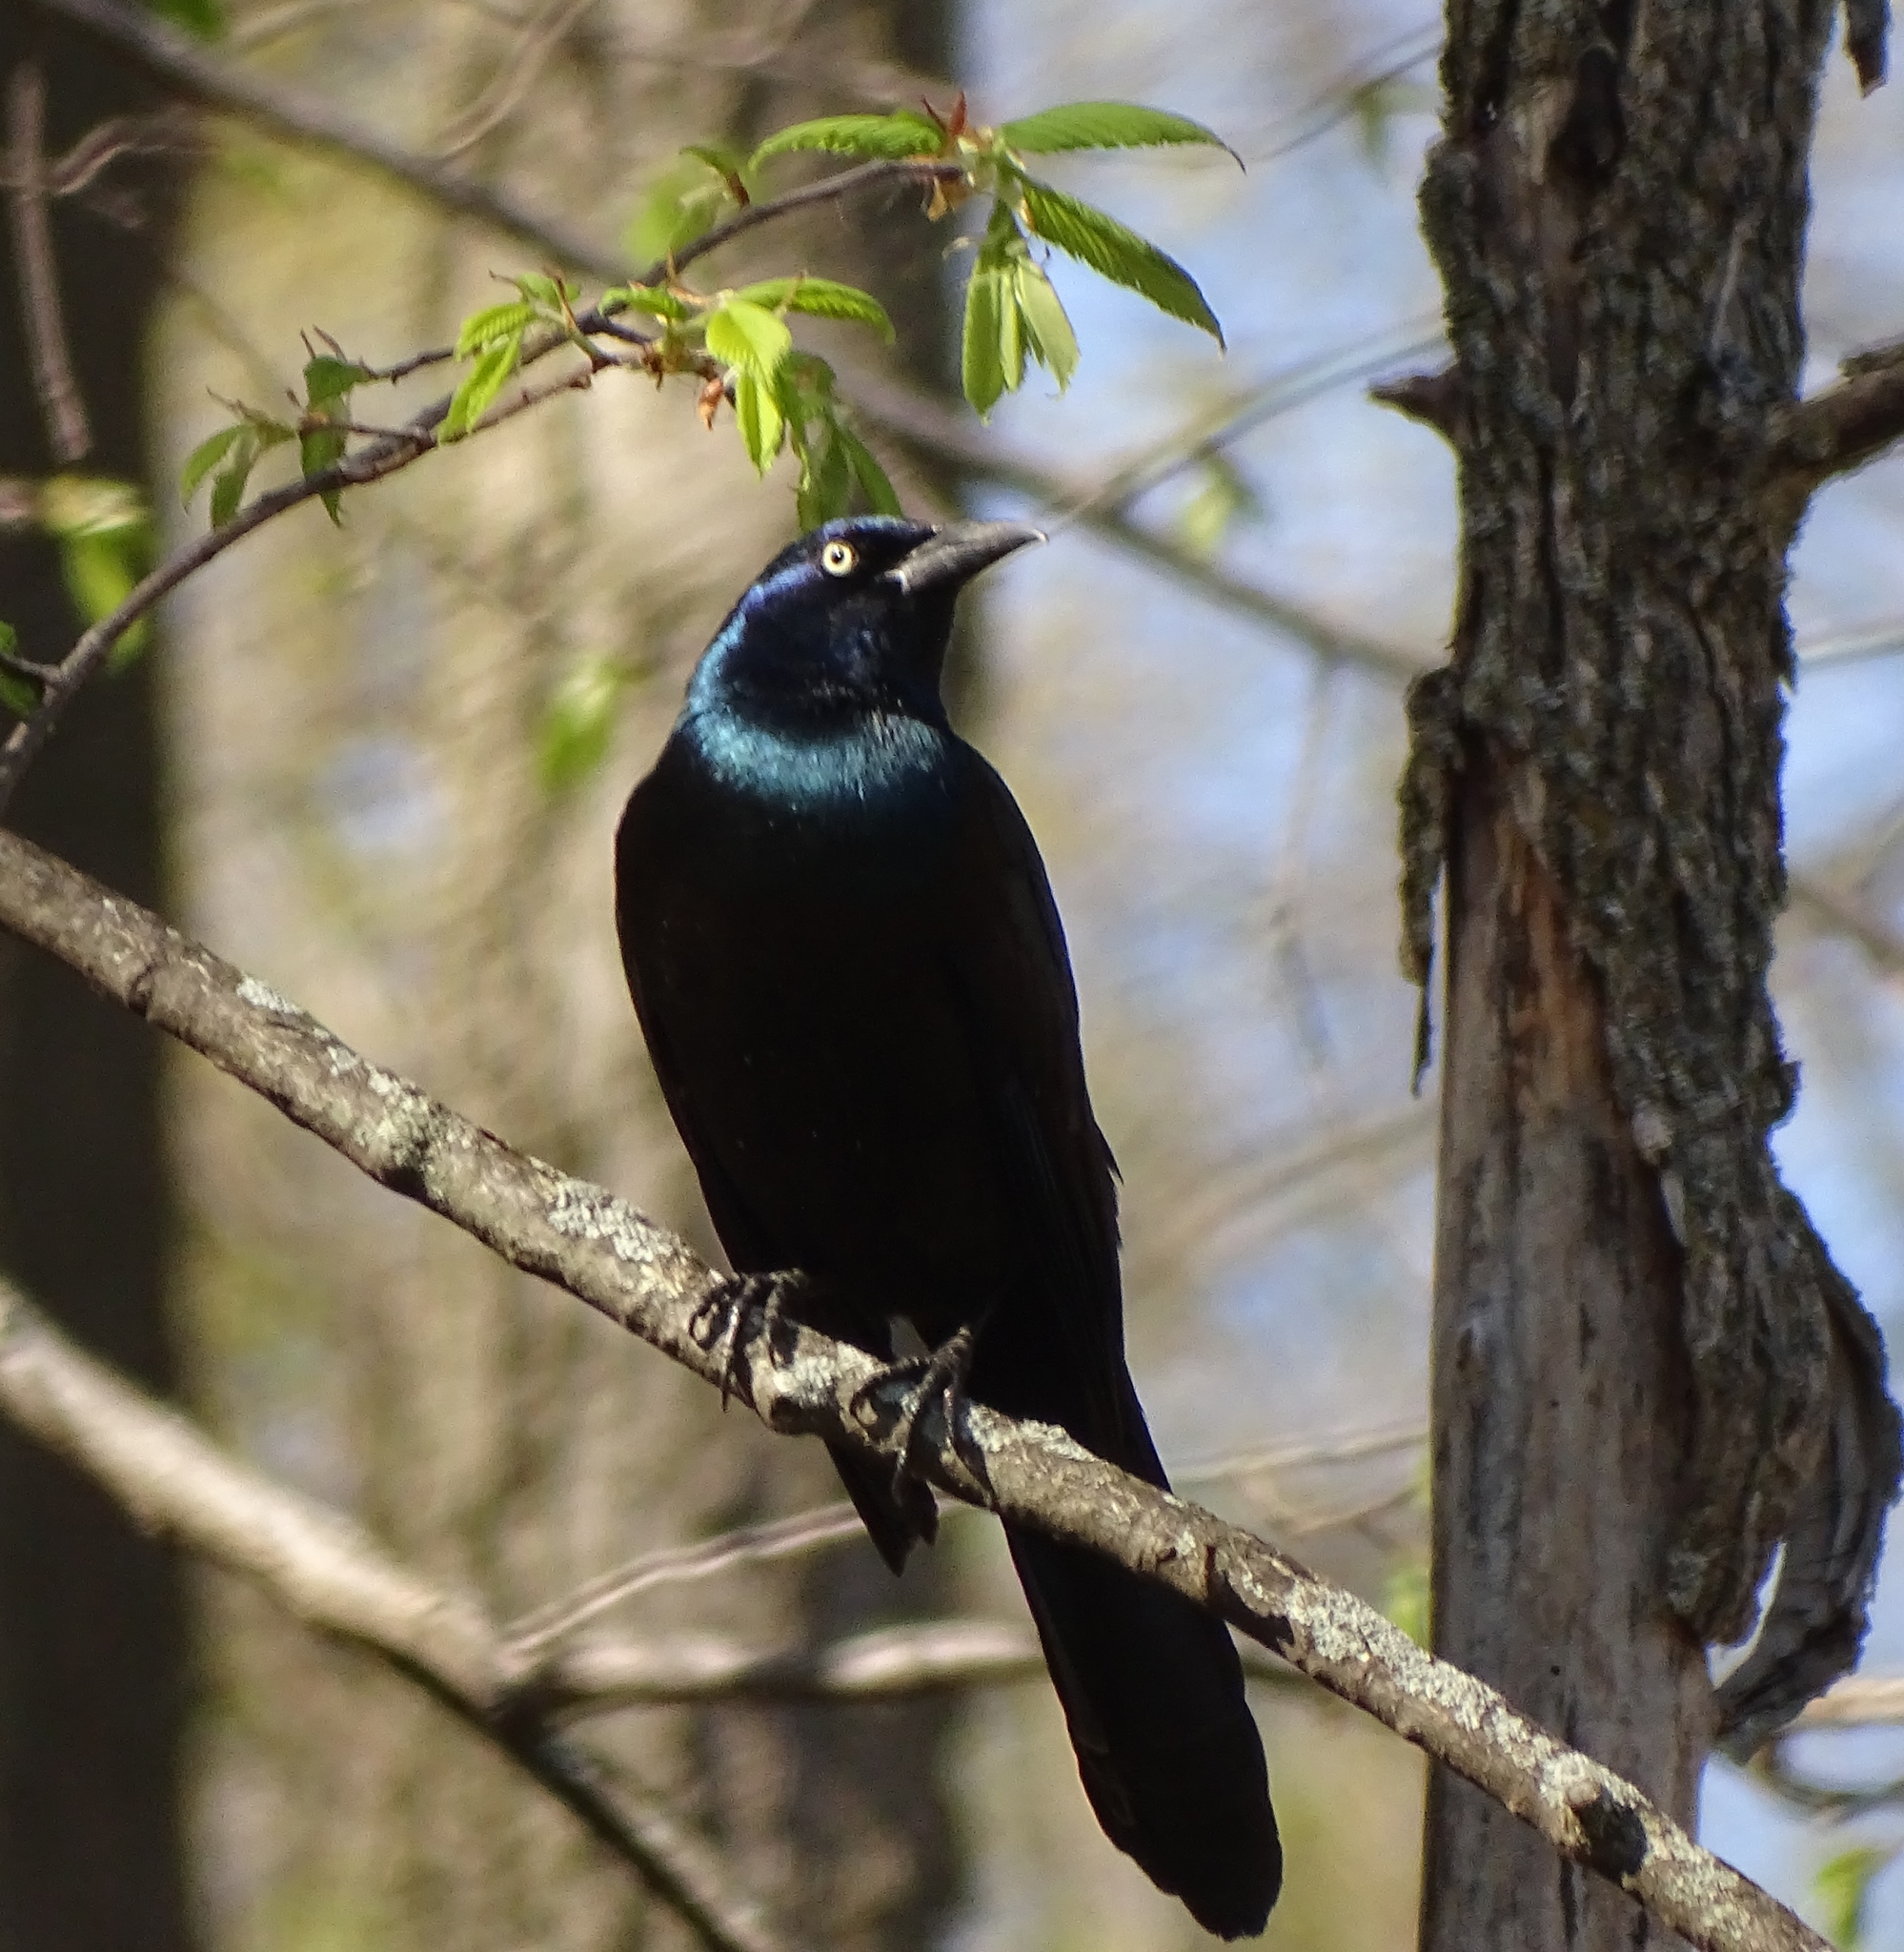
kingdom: Animalia
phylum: Chordata
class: Aves
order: Passeriformes
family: Icteridae
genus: Quiscalus
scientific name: Quiscalus quiscula
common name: Common grackle
